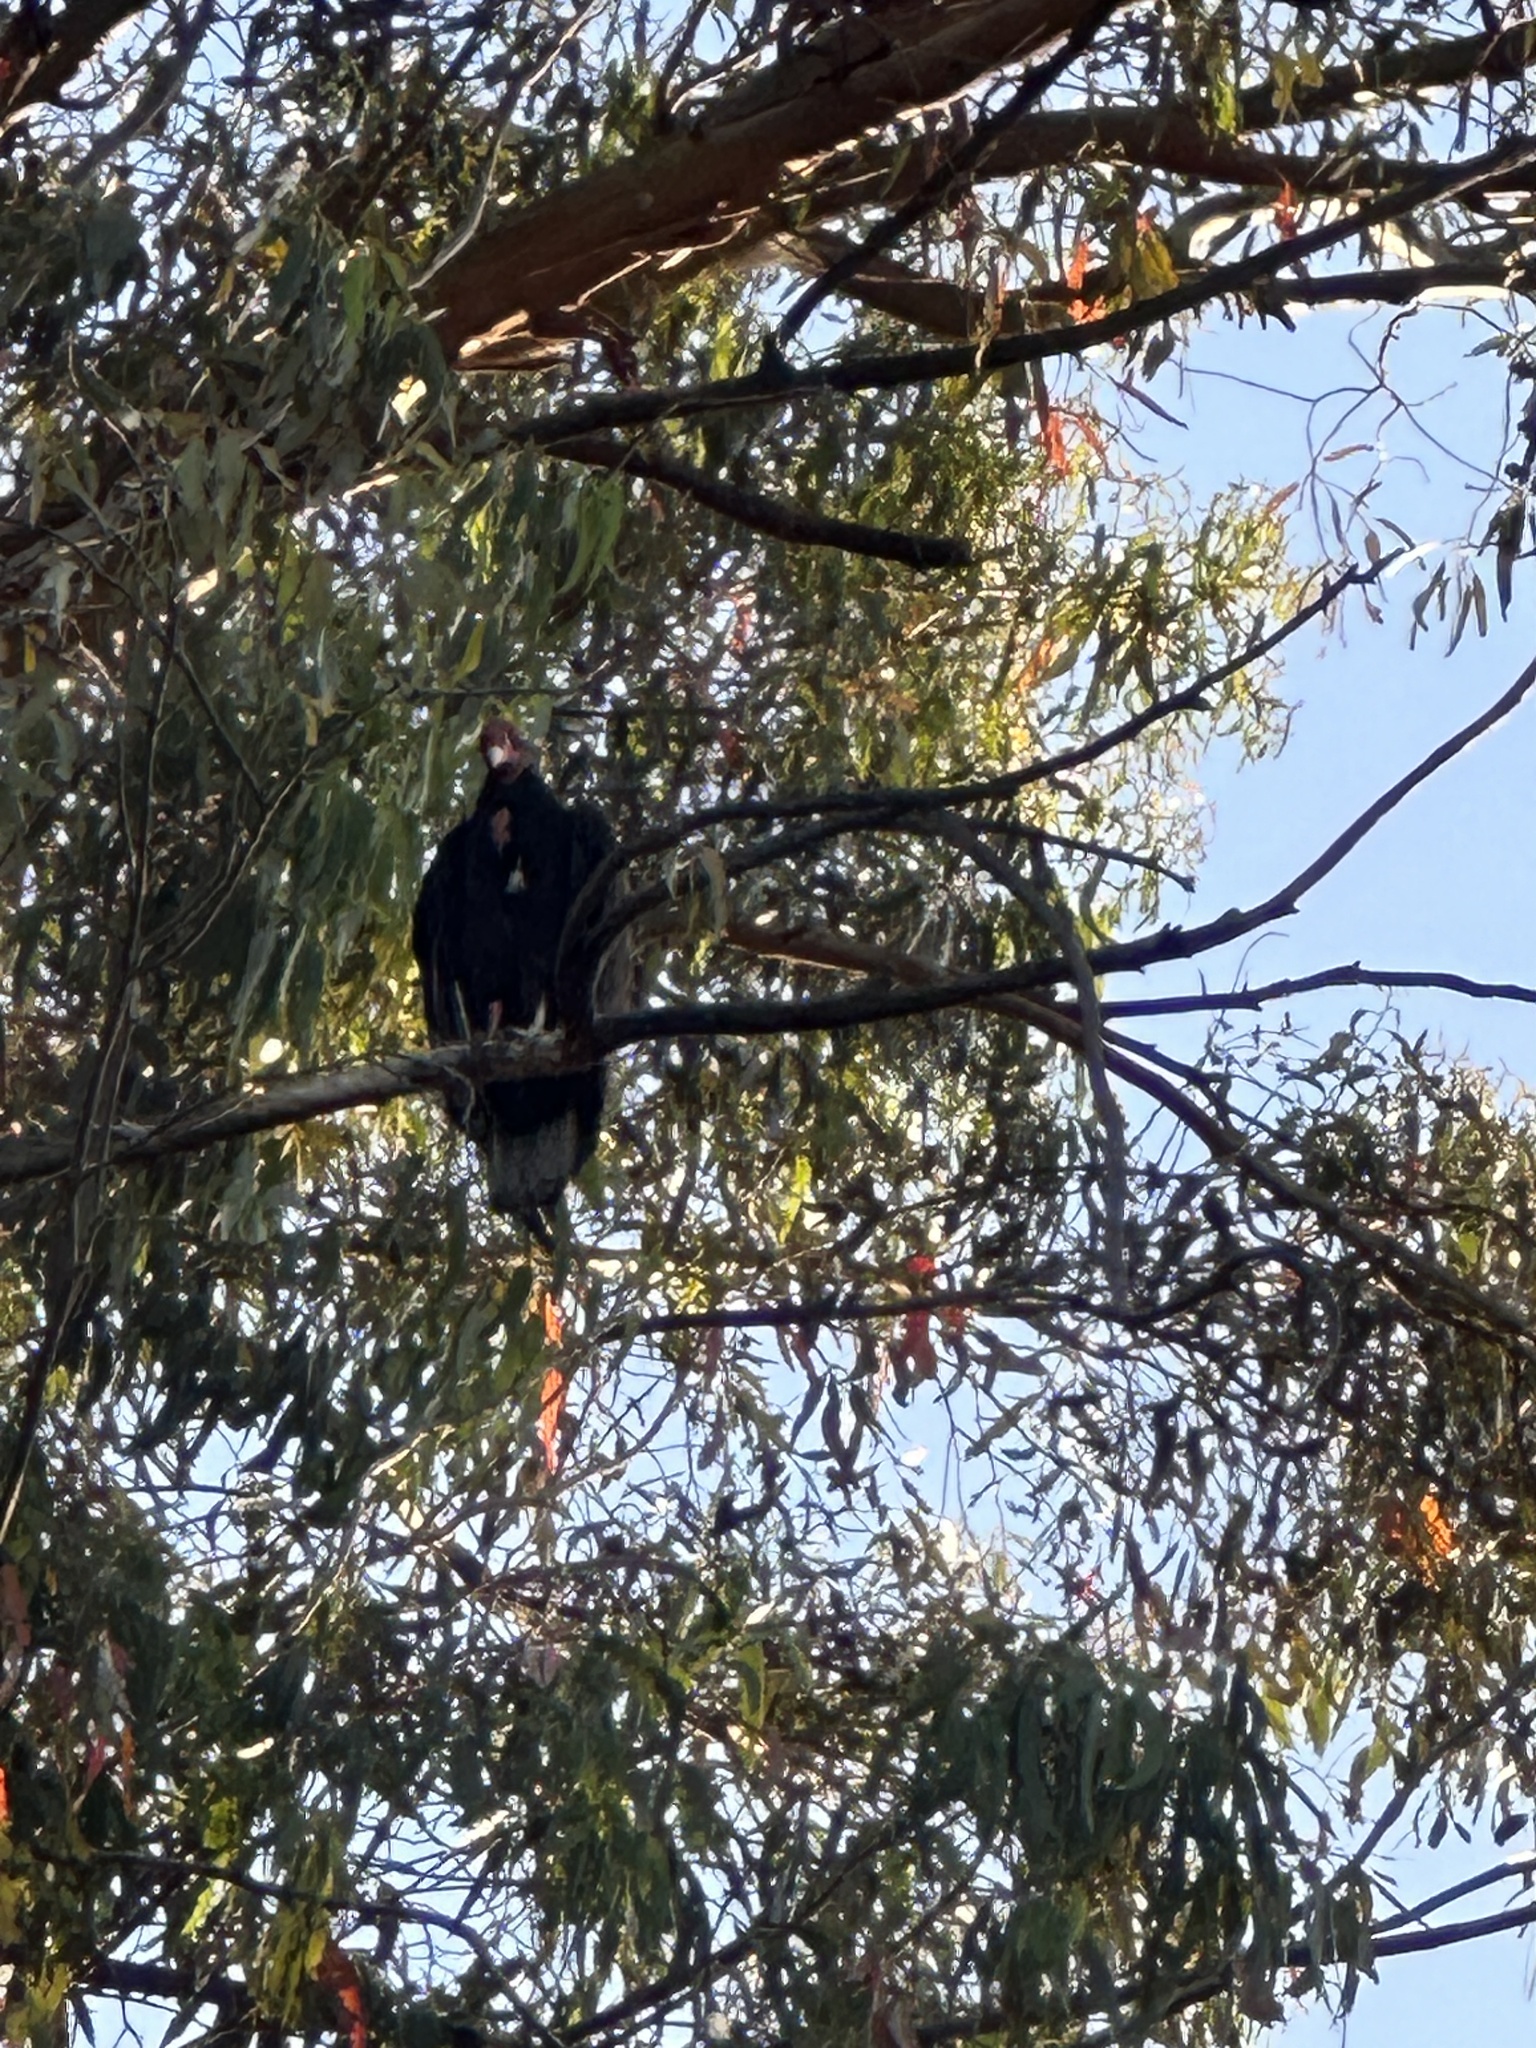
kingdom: Animalia
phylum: Chordata
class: Aves
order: Accipitriformes
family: Cathartidae
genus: Cathartes
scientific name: Cathartes aura
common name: Turkey vulture
